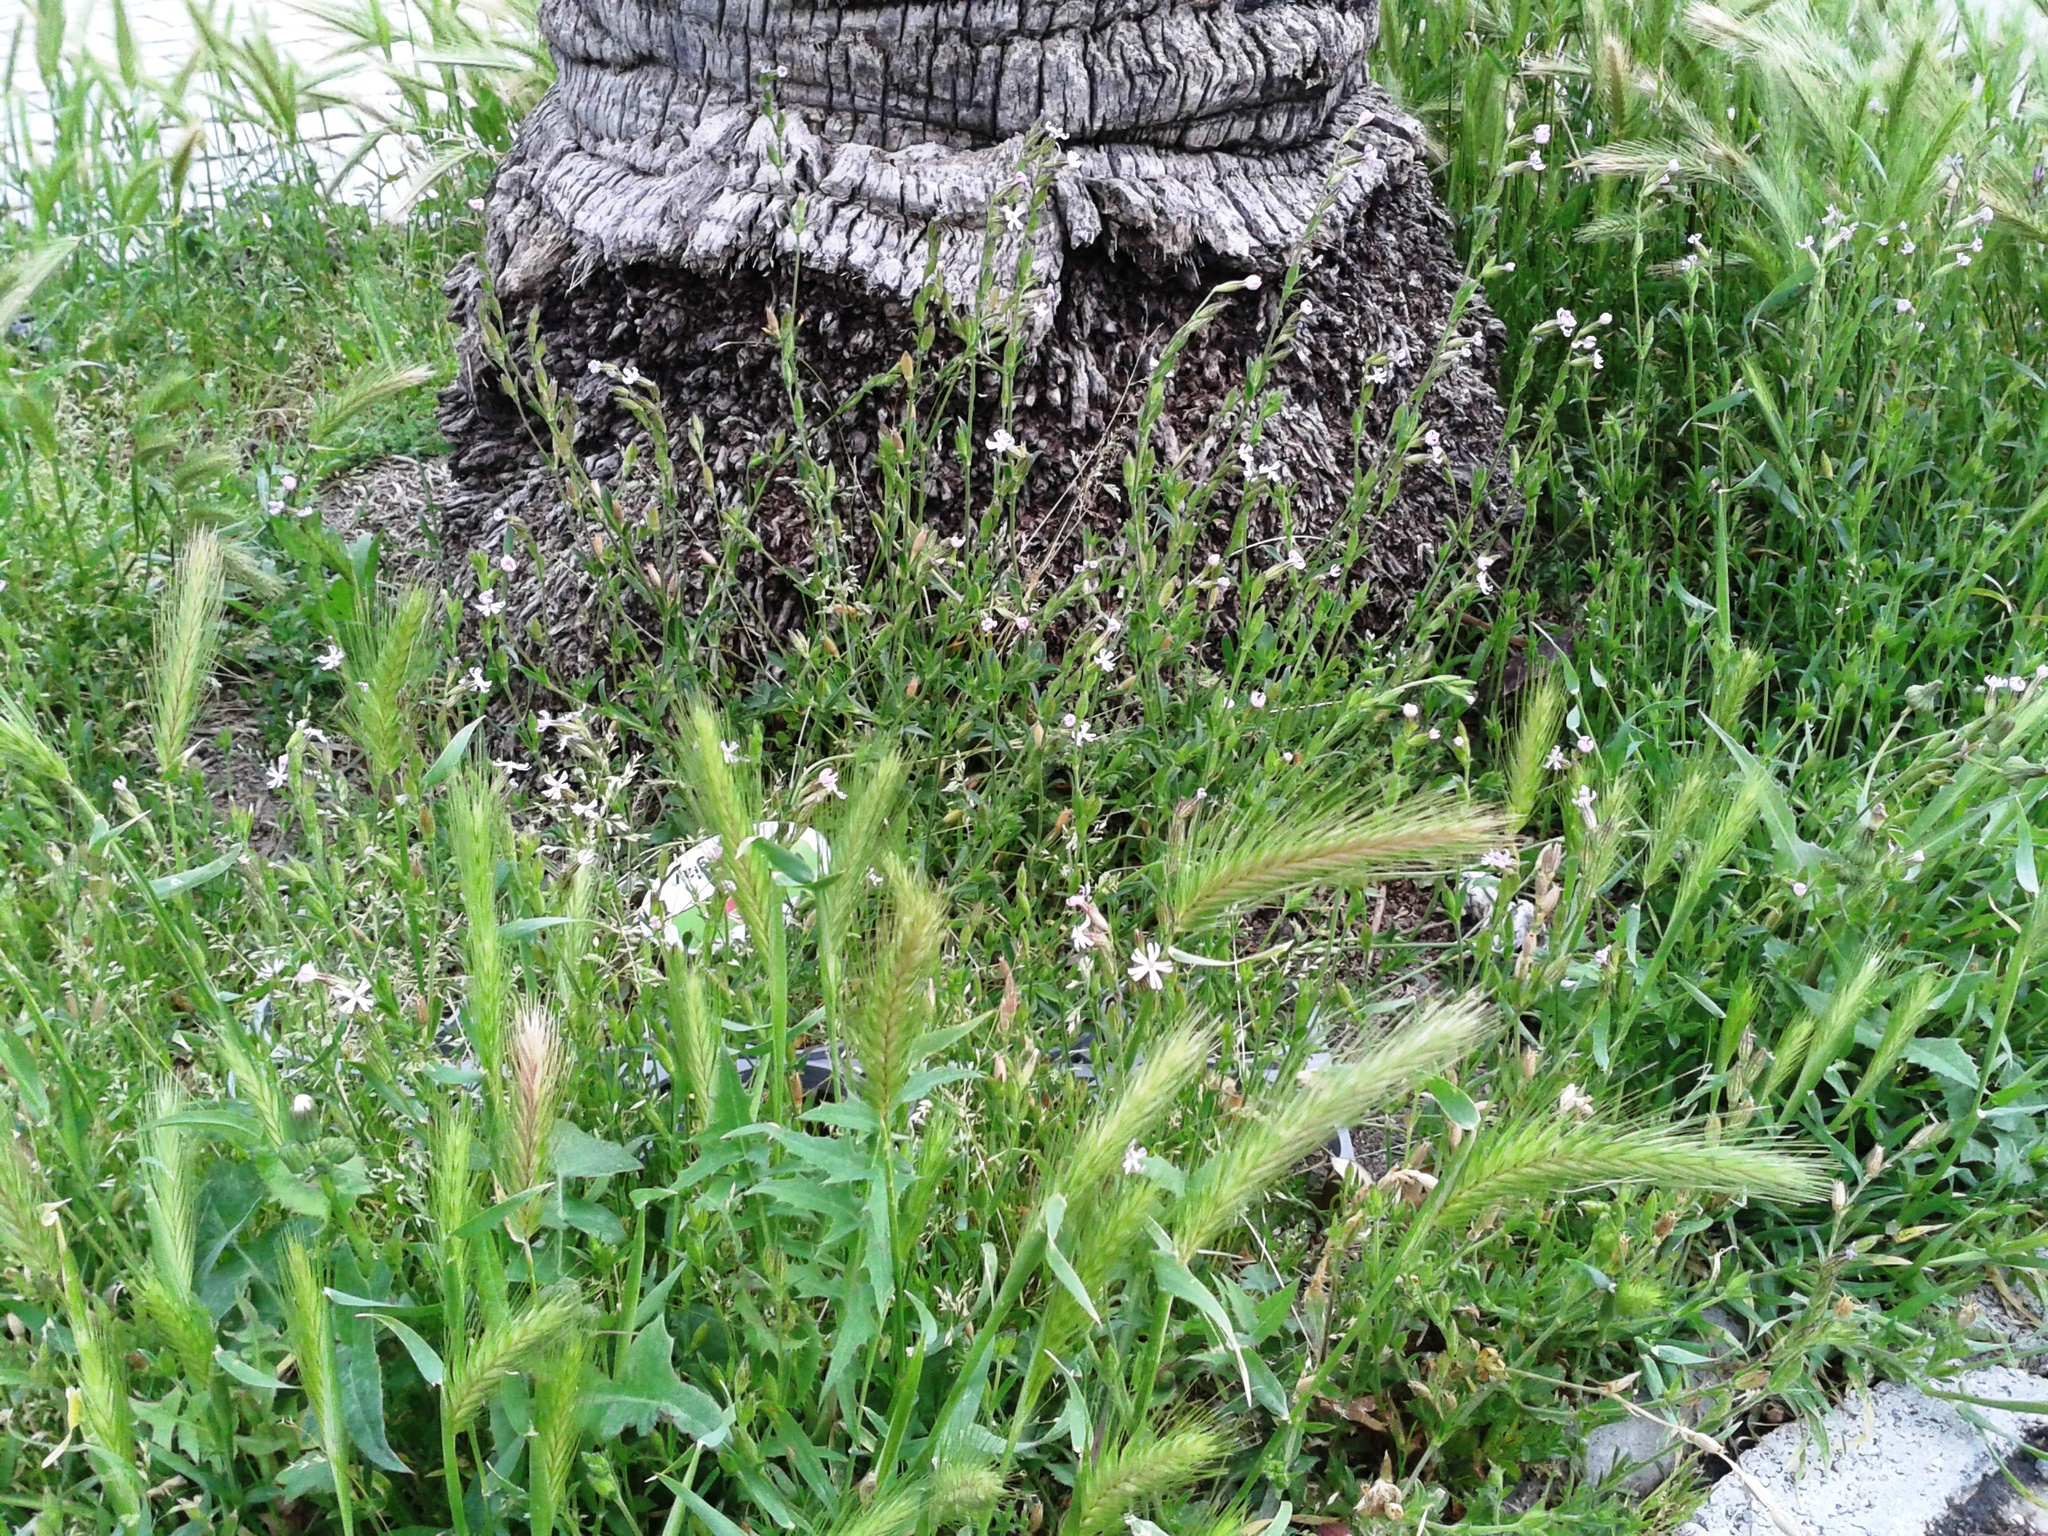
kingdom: Plantae
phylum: Tracheophyta
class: Liliopsida
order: Poales
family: Poaceae
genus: Hordeum
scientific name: Hordeum murinum
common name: Wall barley
